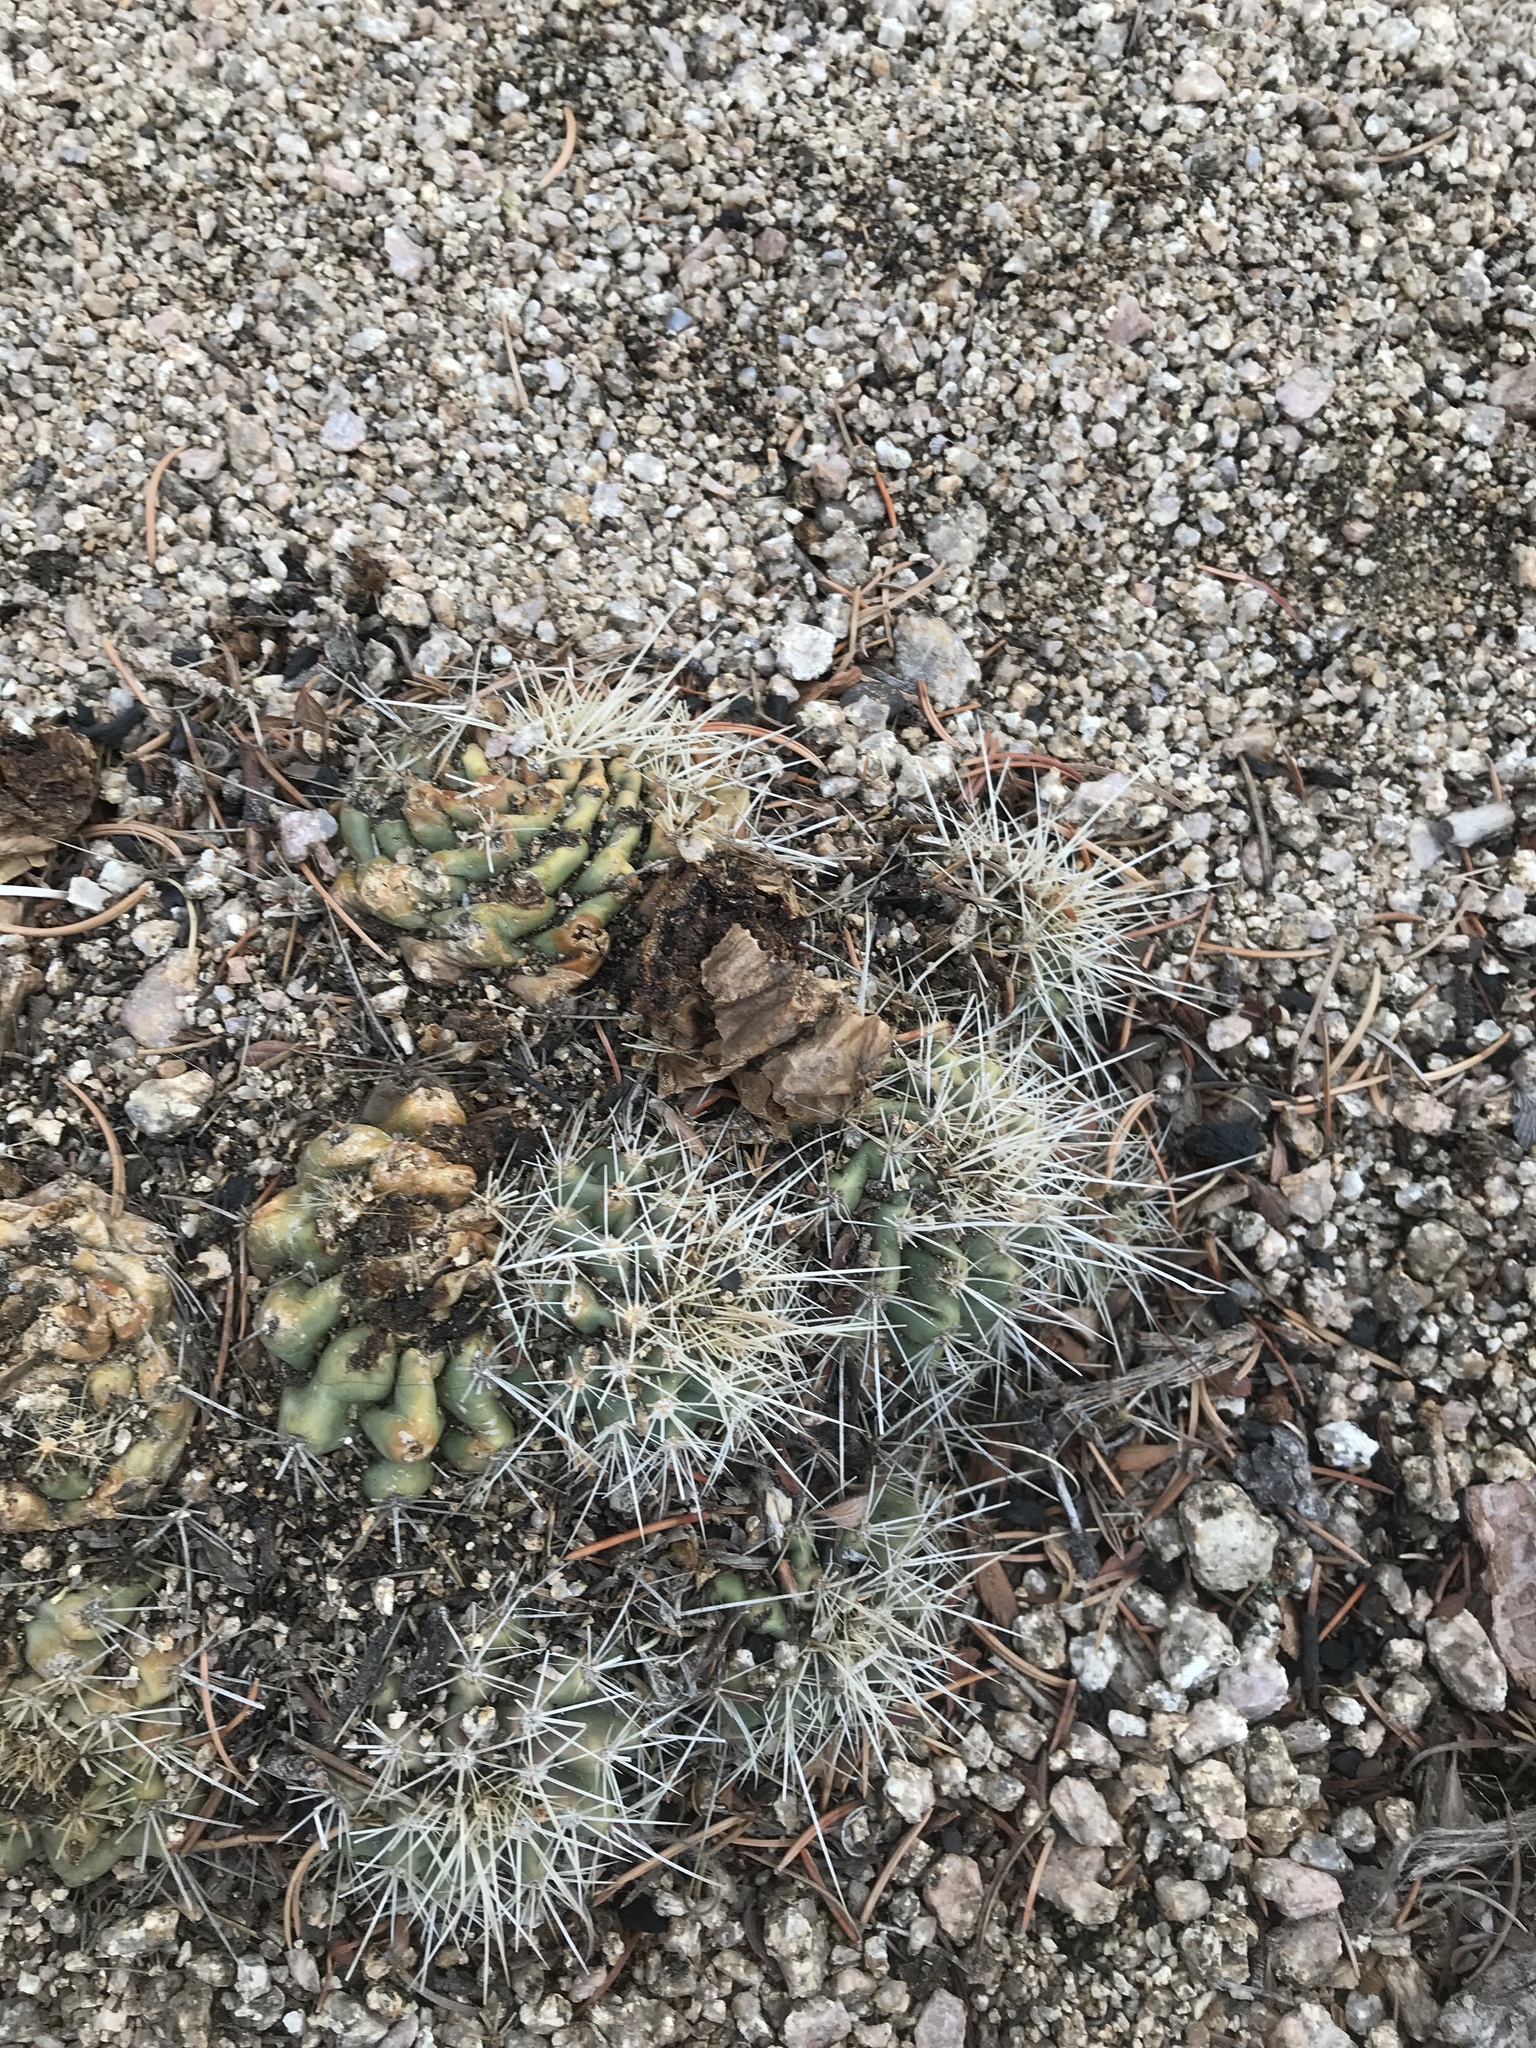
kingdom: Plantae
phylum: Tracheophyta
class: Magnoliopsida
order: Caryophyllales
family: Cactaceae
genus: Echinocereus
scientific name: Echinocereus coccineus
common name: Scarlet hedgehog cactus
